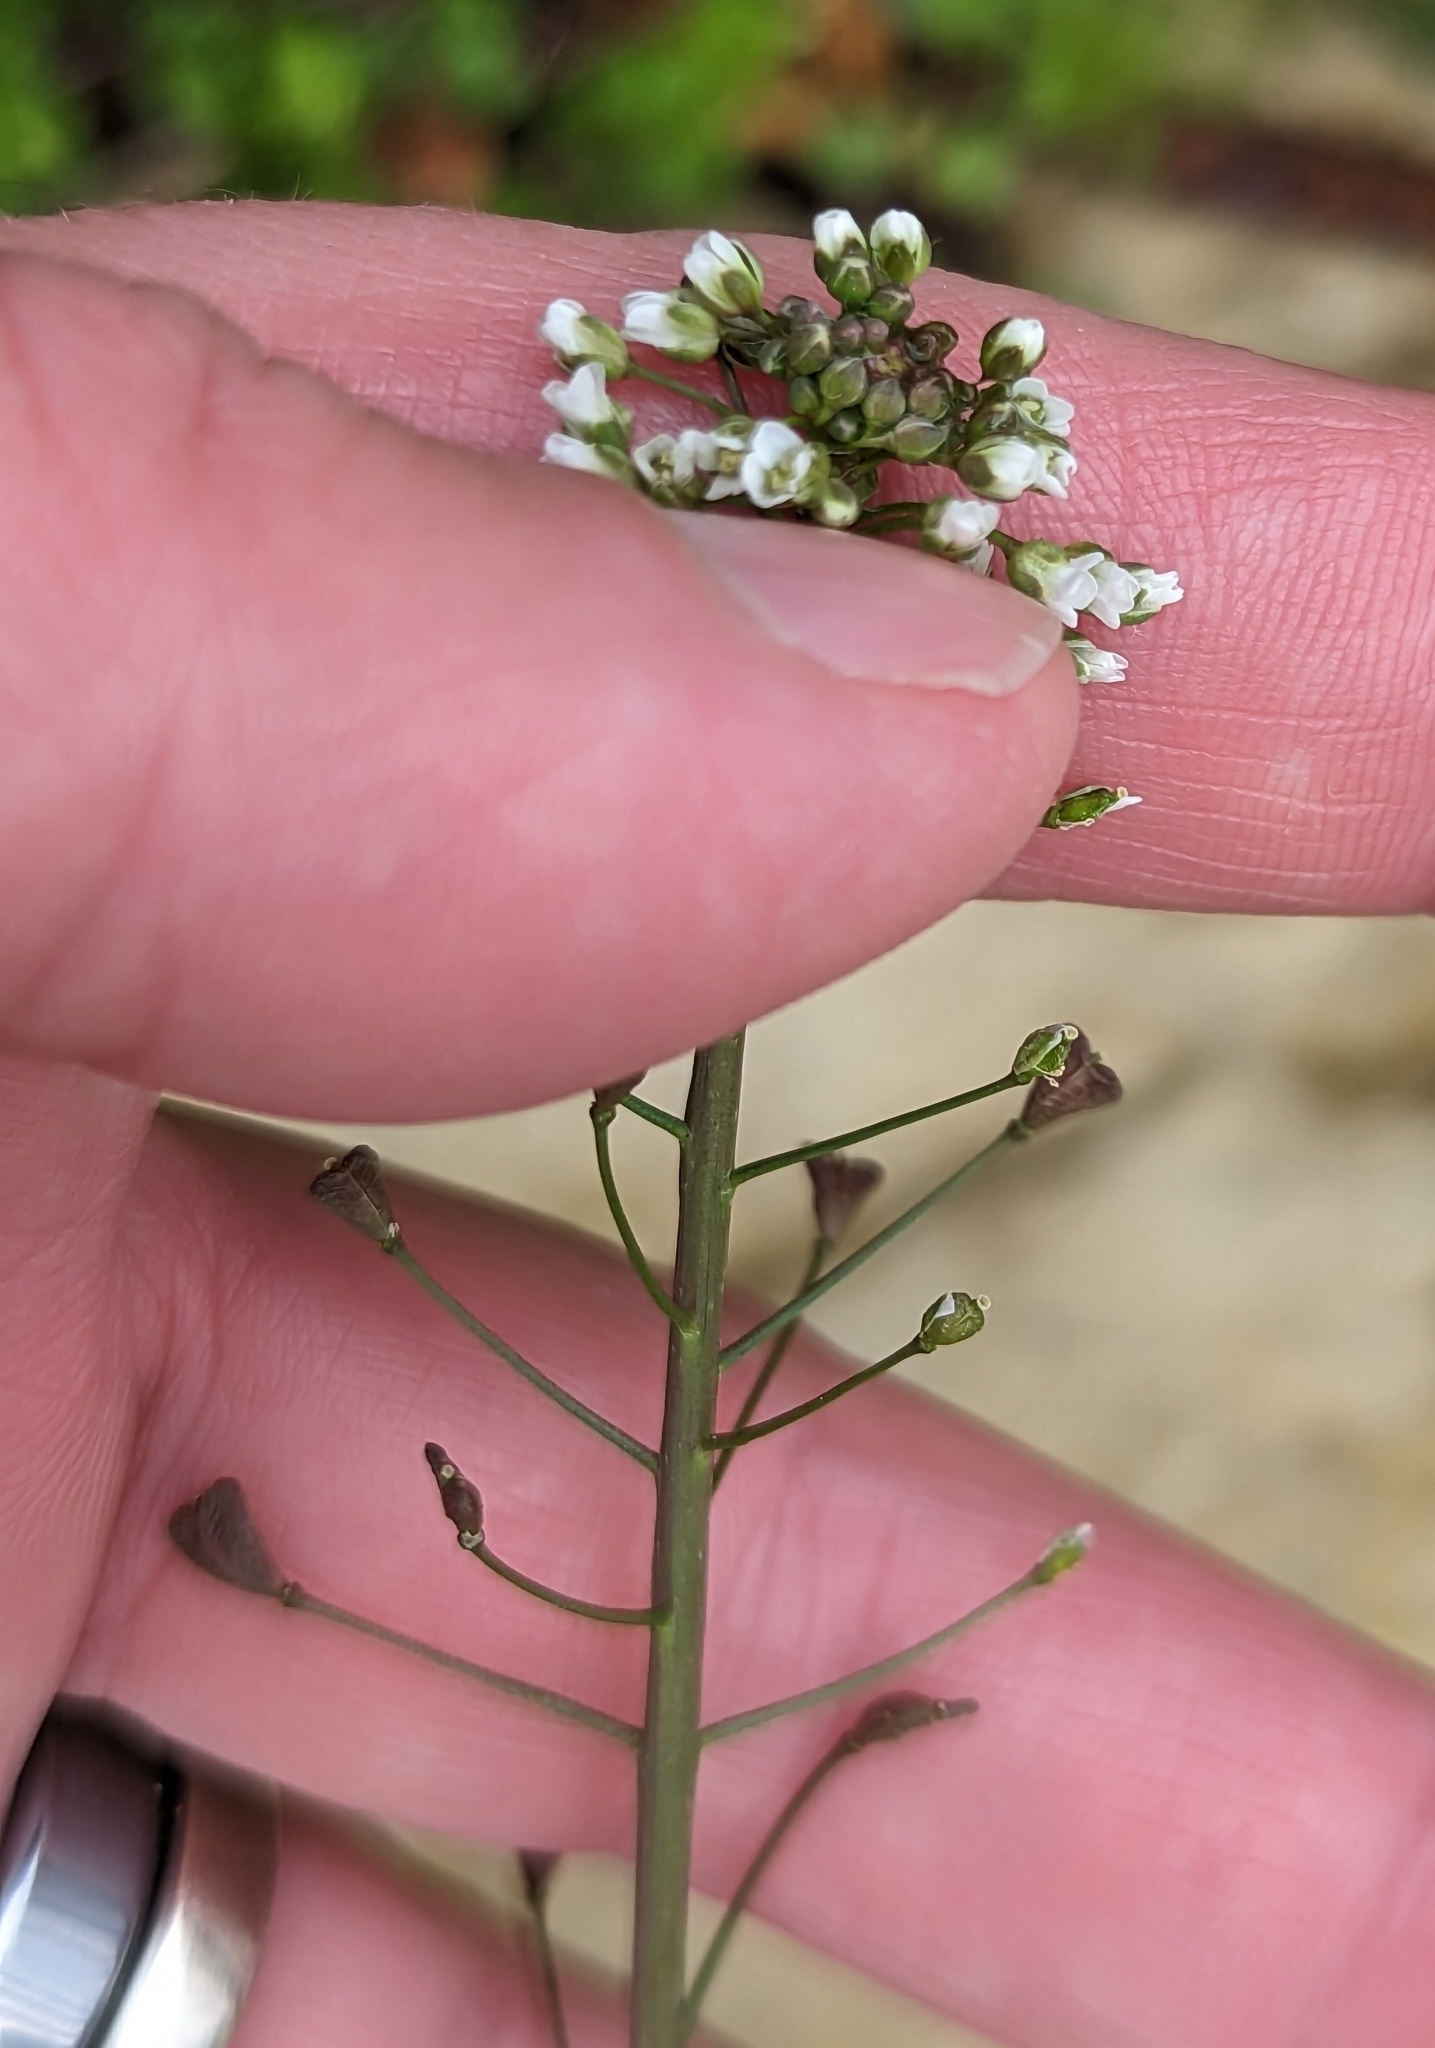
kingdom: Plantae
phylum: Tracheophyta
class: Magnoliopsida
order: Brassicales
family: Brassicaceae
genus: Capsella
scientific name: Capsella bursa-pastoris
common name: Shepherd's purse
